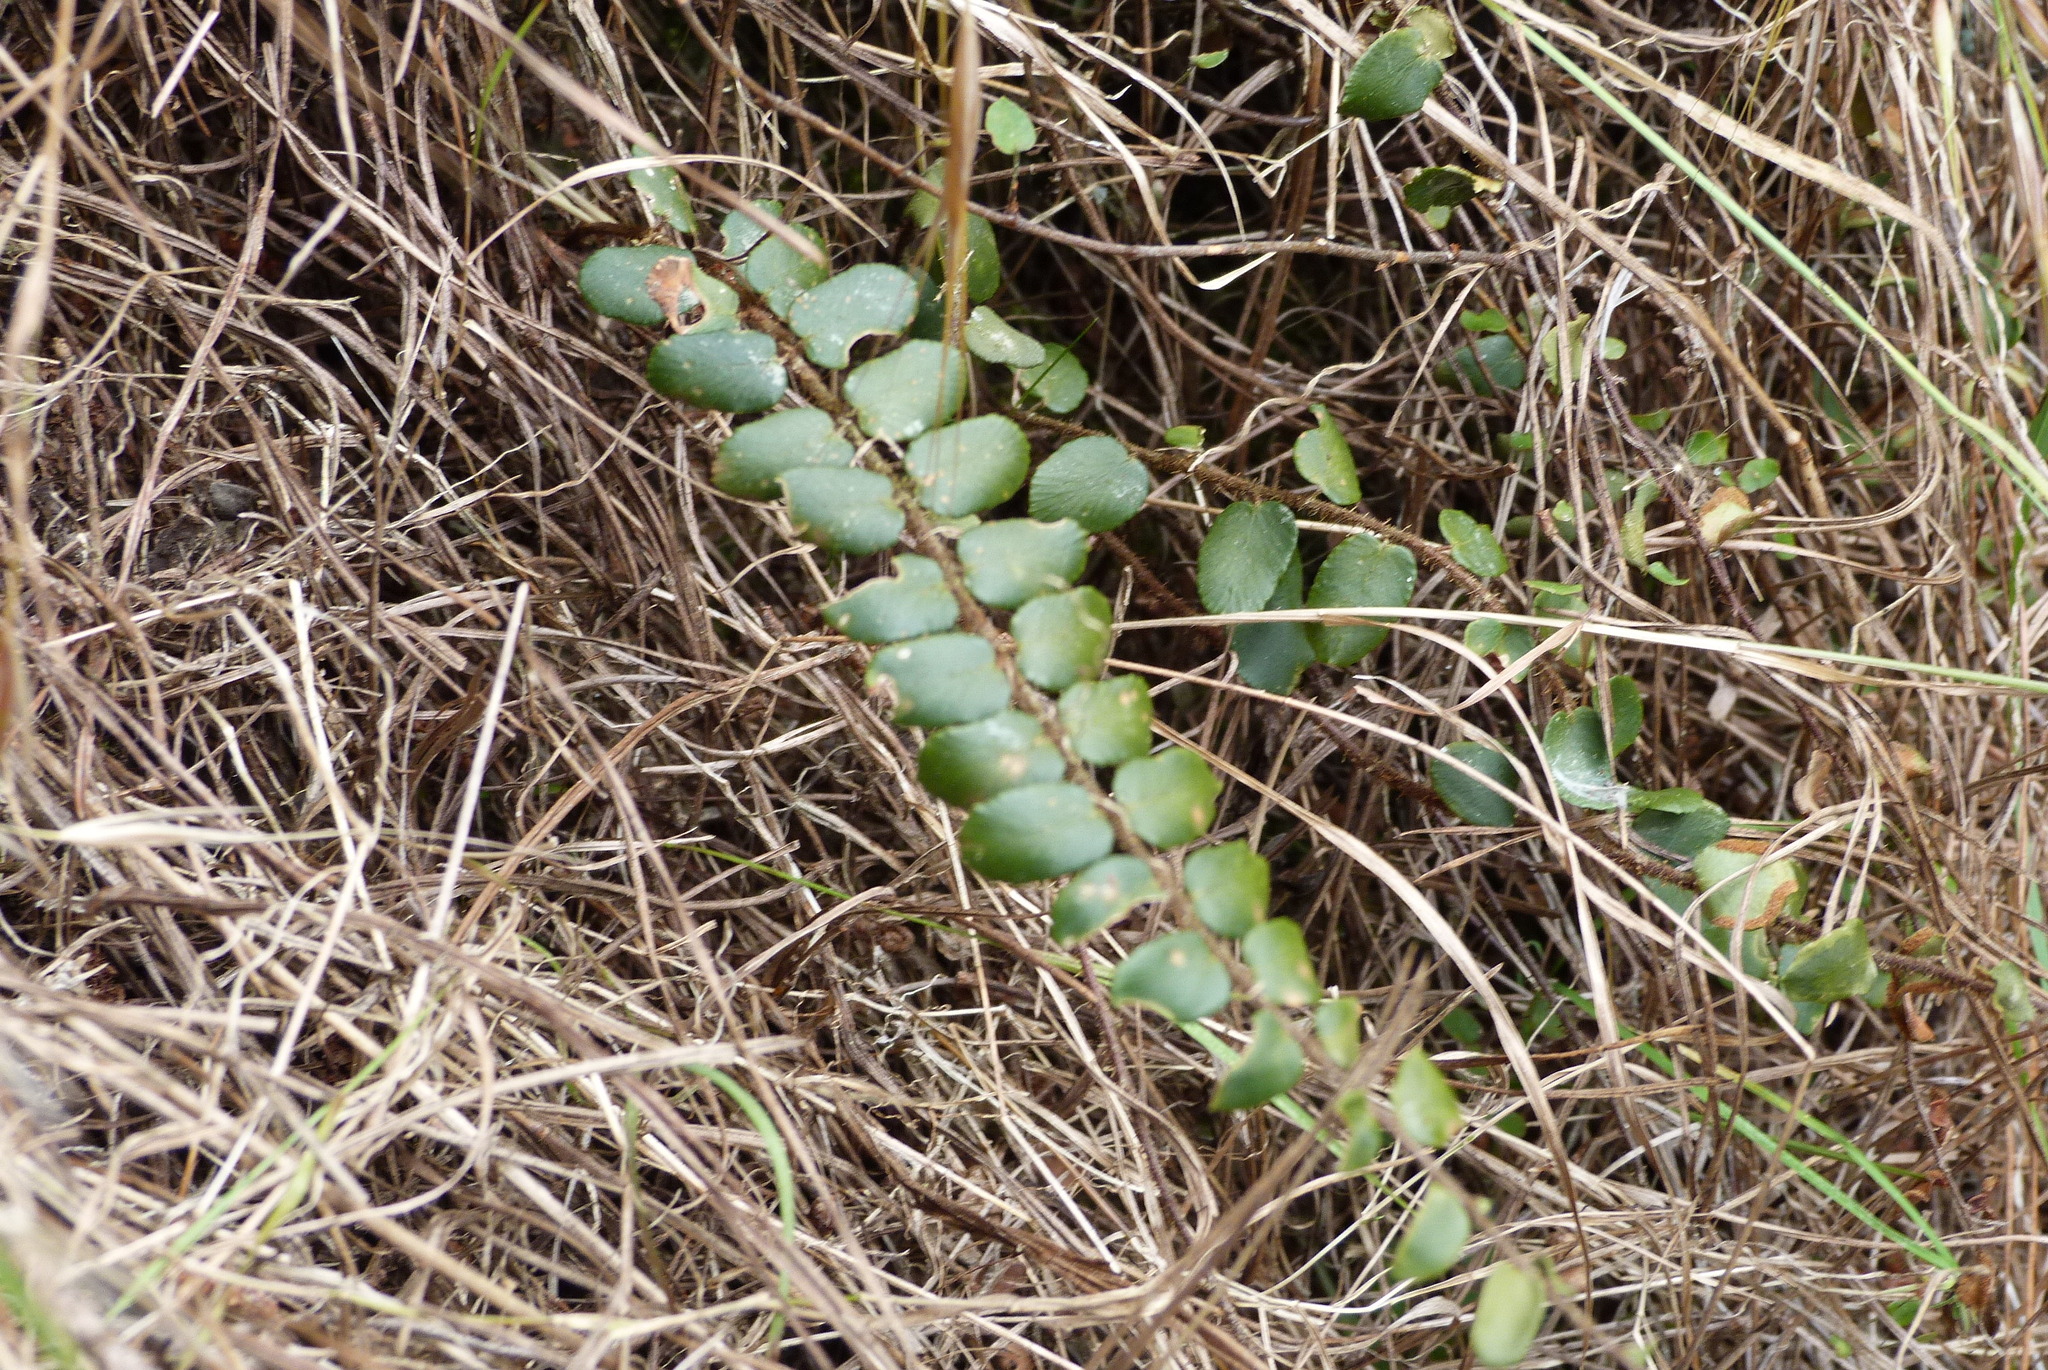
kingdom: Plantae
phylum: Tracheophyta
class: Polypodiopsida
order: Polypodiales
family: Pteridaceae
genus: Pellaea
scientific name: Pellaea rotundifolia
